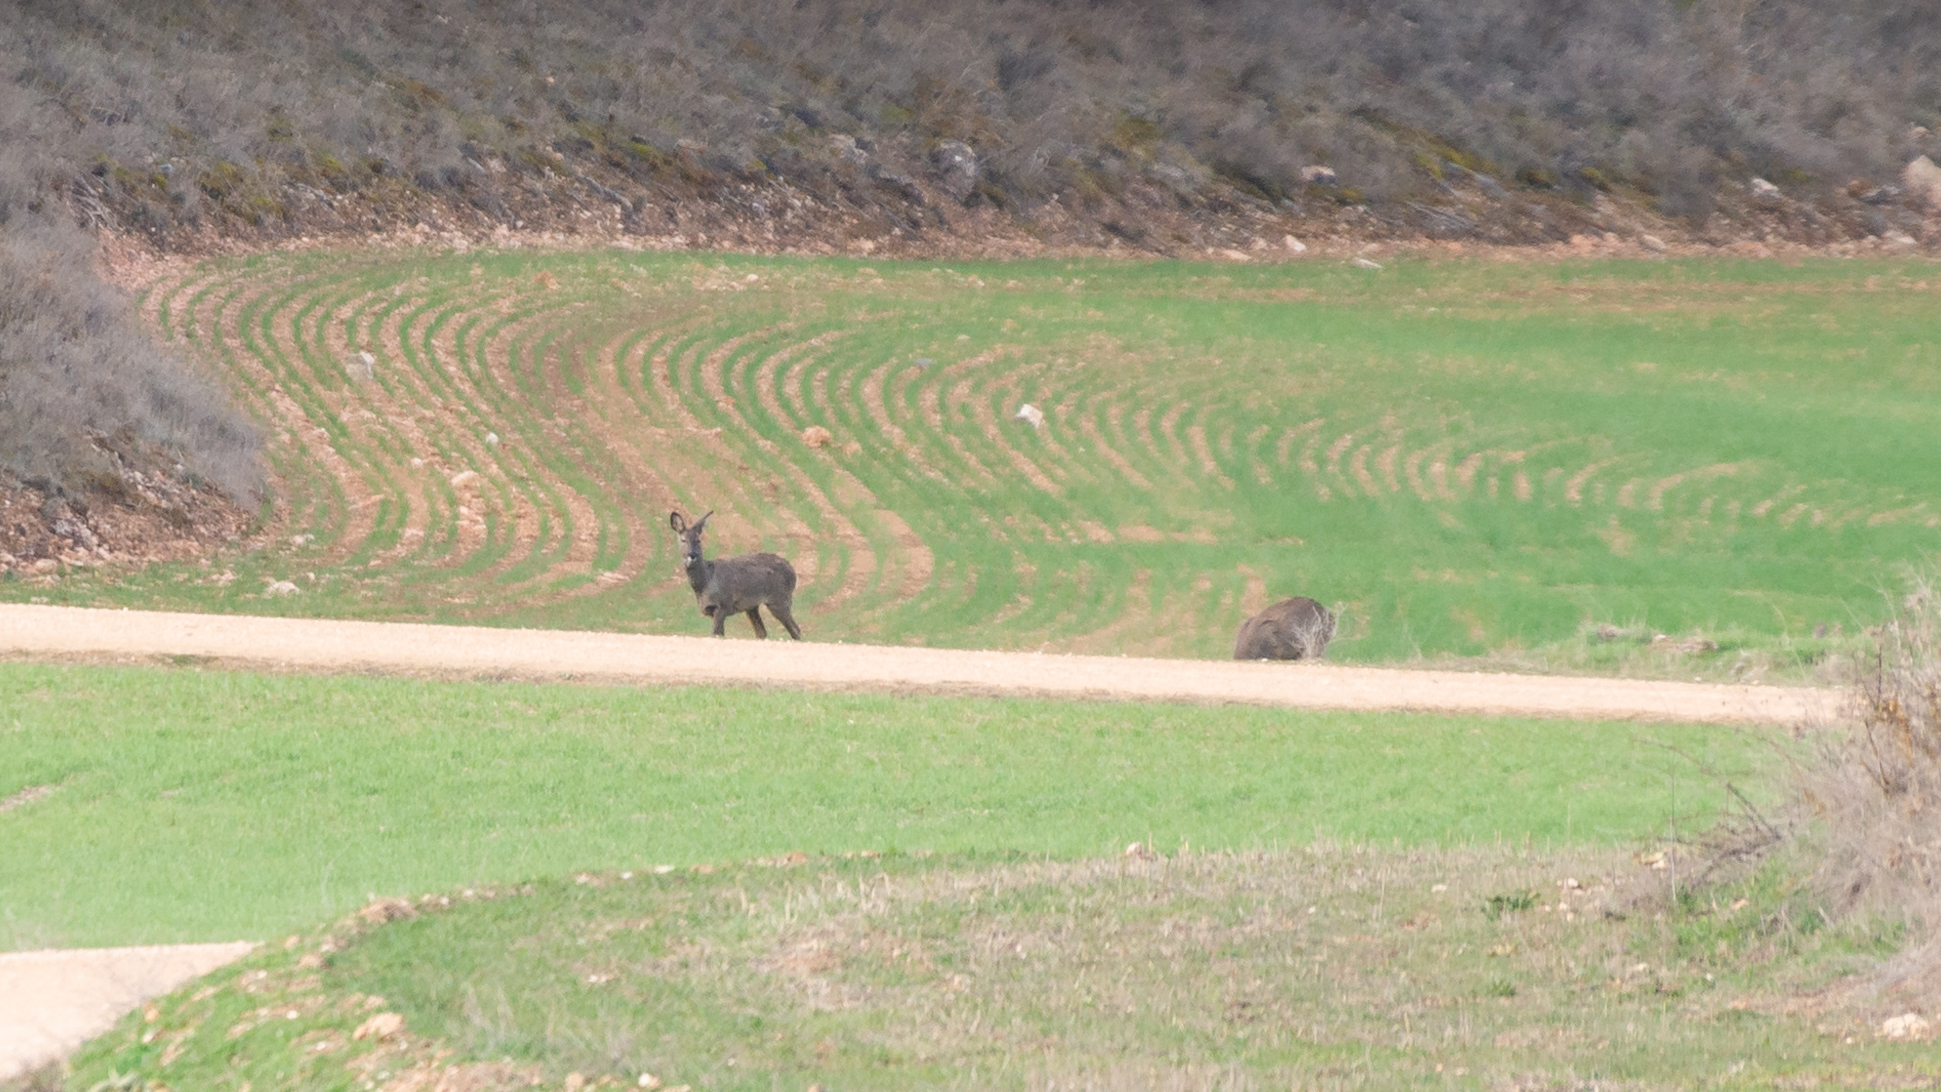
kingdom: Animalia
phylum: Chordata
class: Mammalia
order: Artiodactyla
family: Cervidae
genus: Capreolus
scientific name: Capreolus capreolus
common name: Western roe deer
